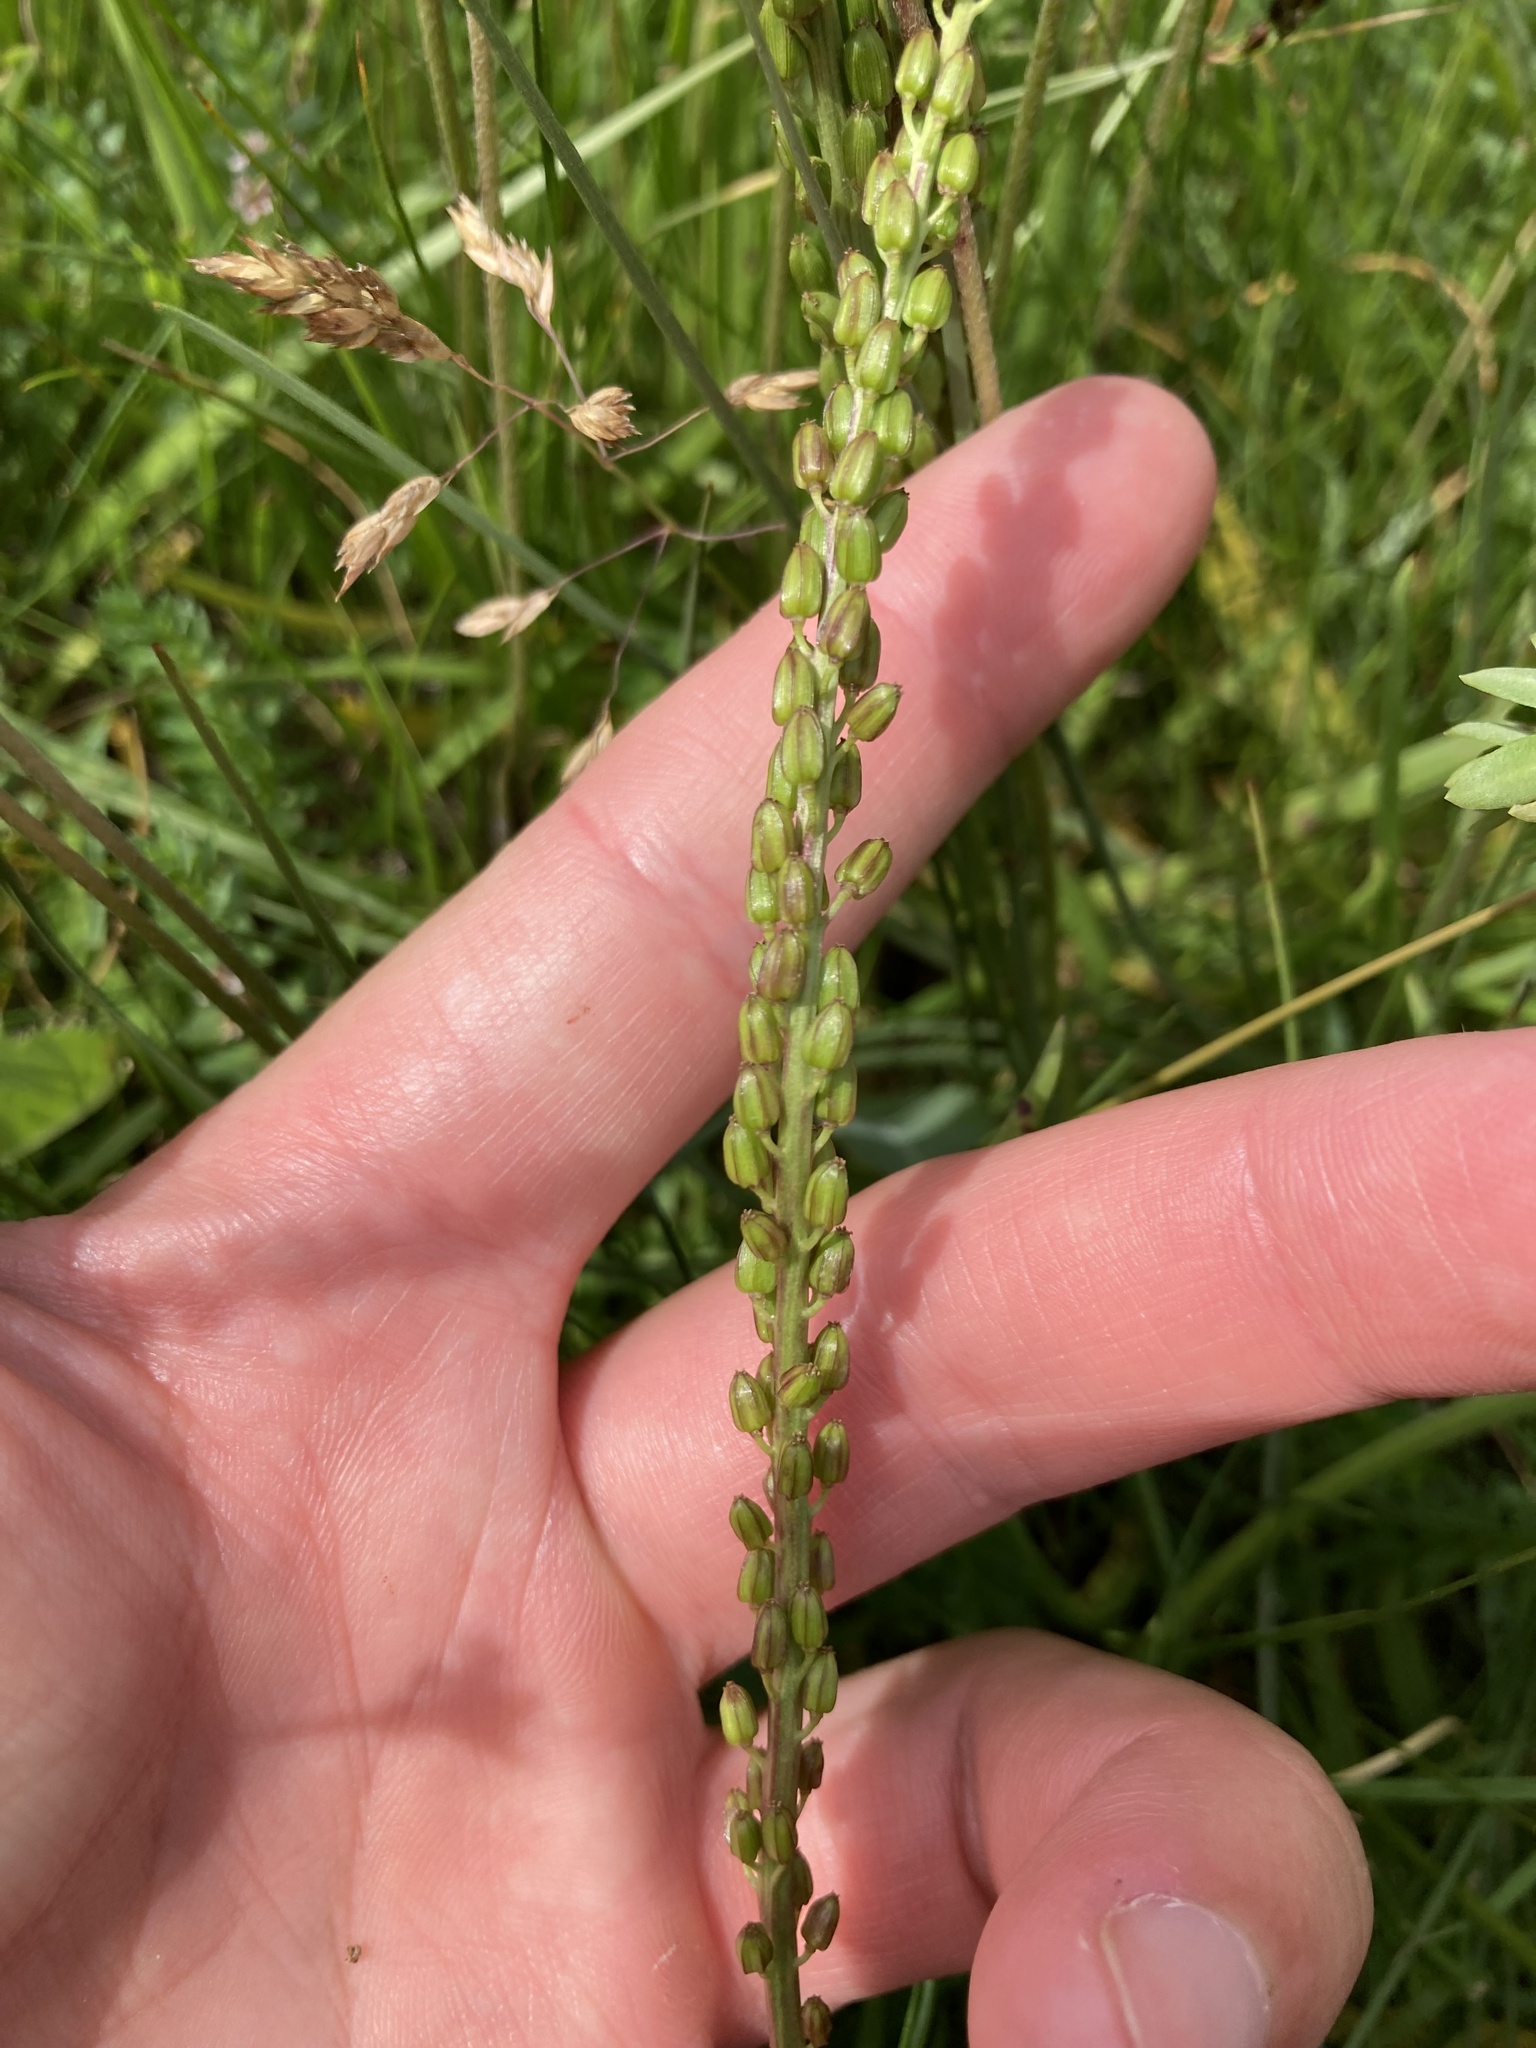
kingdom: Plantae
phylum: Tracheophyta
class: Liliopsida
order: Alismatales
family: Juncaginaceae
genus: Triglochin
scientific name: Triglochin maritima
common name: Sea arrowgrass
